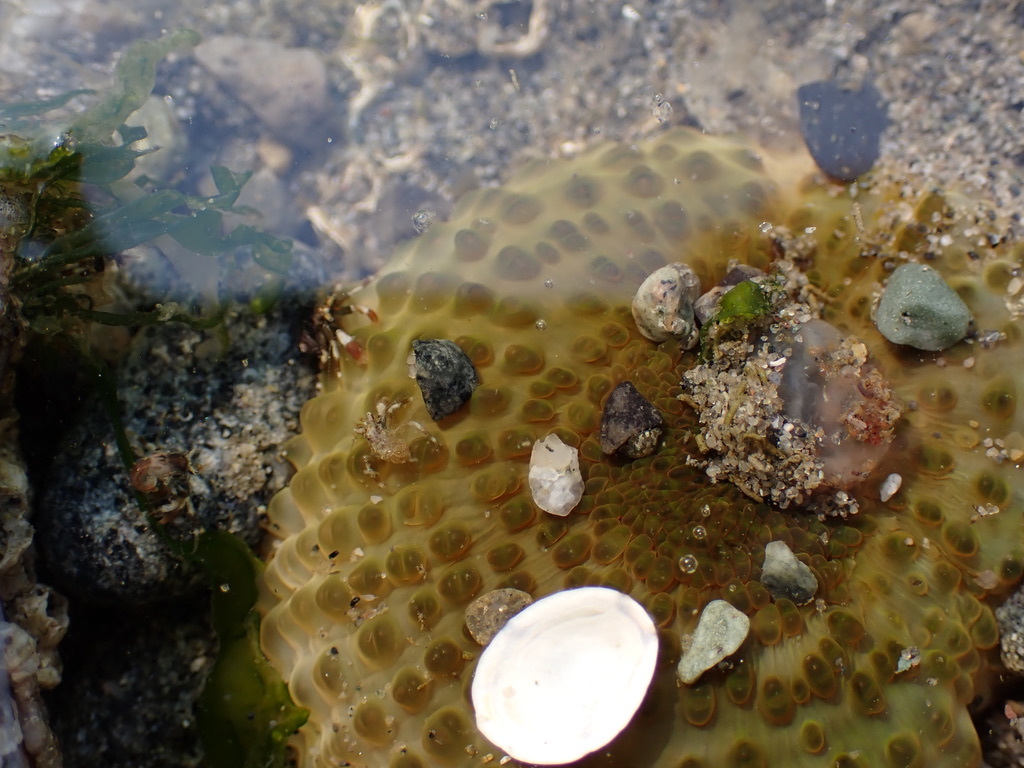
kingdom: Animalia
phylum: Cnidaria
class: Anthozoa
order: Actiniaria
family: Actiniidae
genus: Anthopleura
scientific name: Anthopleura elegantissima
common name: Clonal anemone
